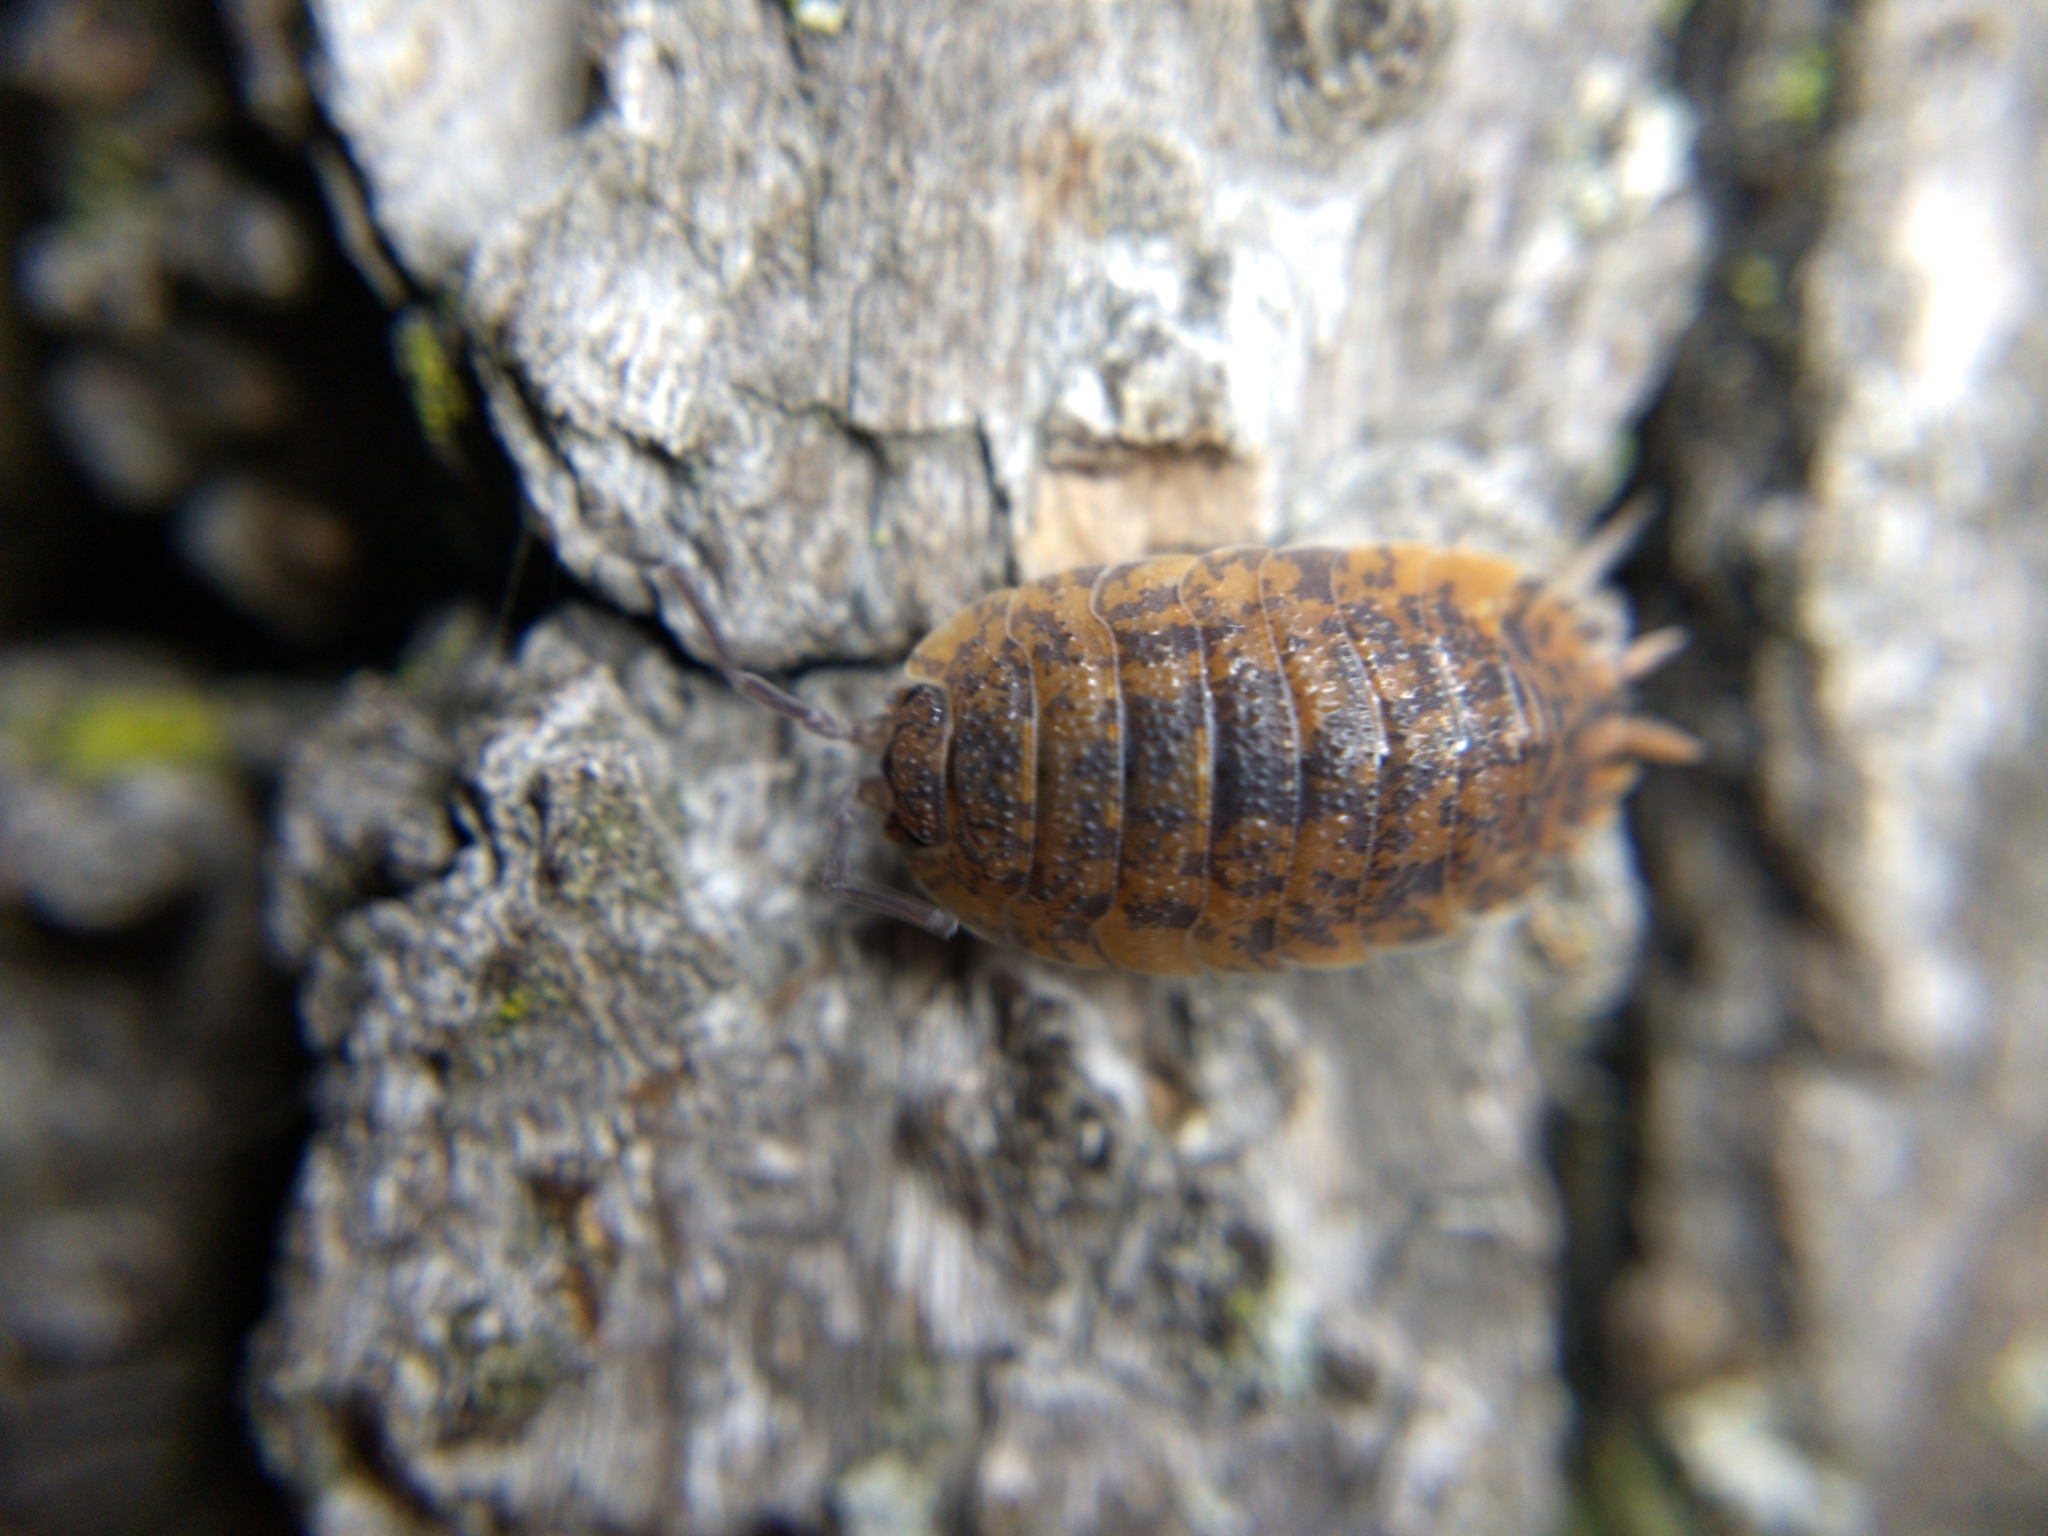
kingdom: Animalia
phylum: Arthropoda
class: Malacostraca
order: Isopoda
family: Porcellionidae
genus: Porcellio
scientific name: Porcellio scaber
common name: Common rough woodlouse
